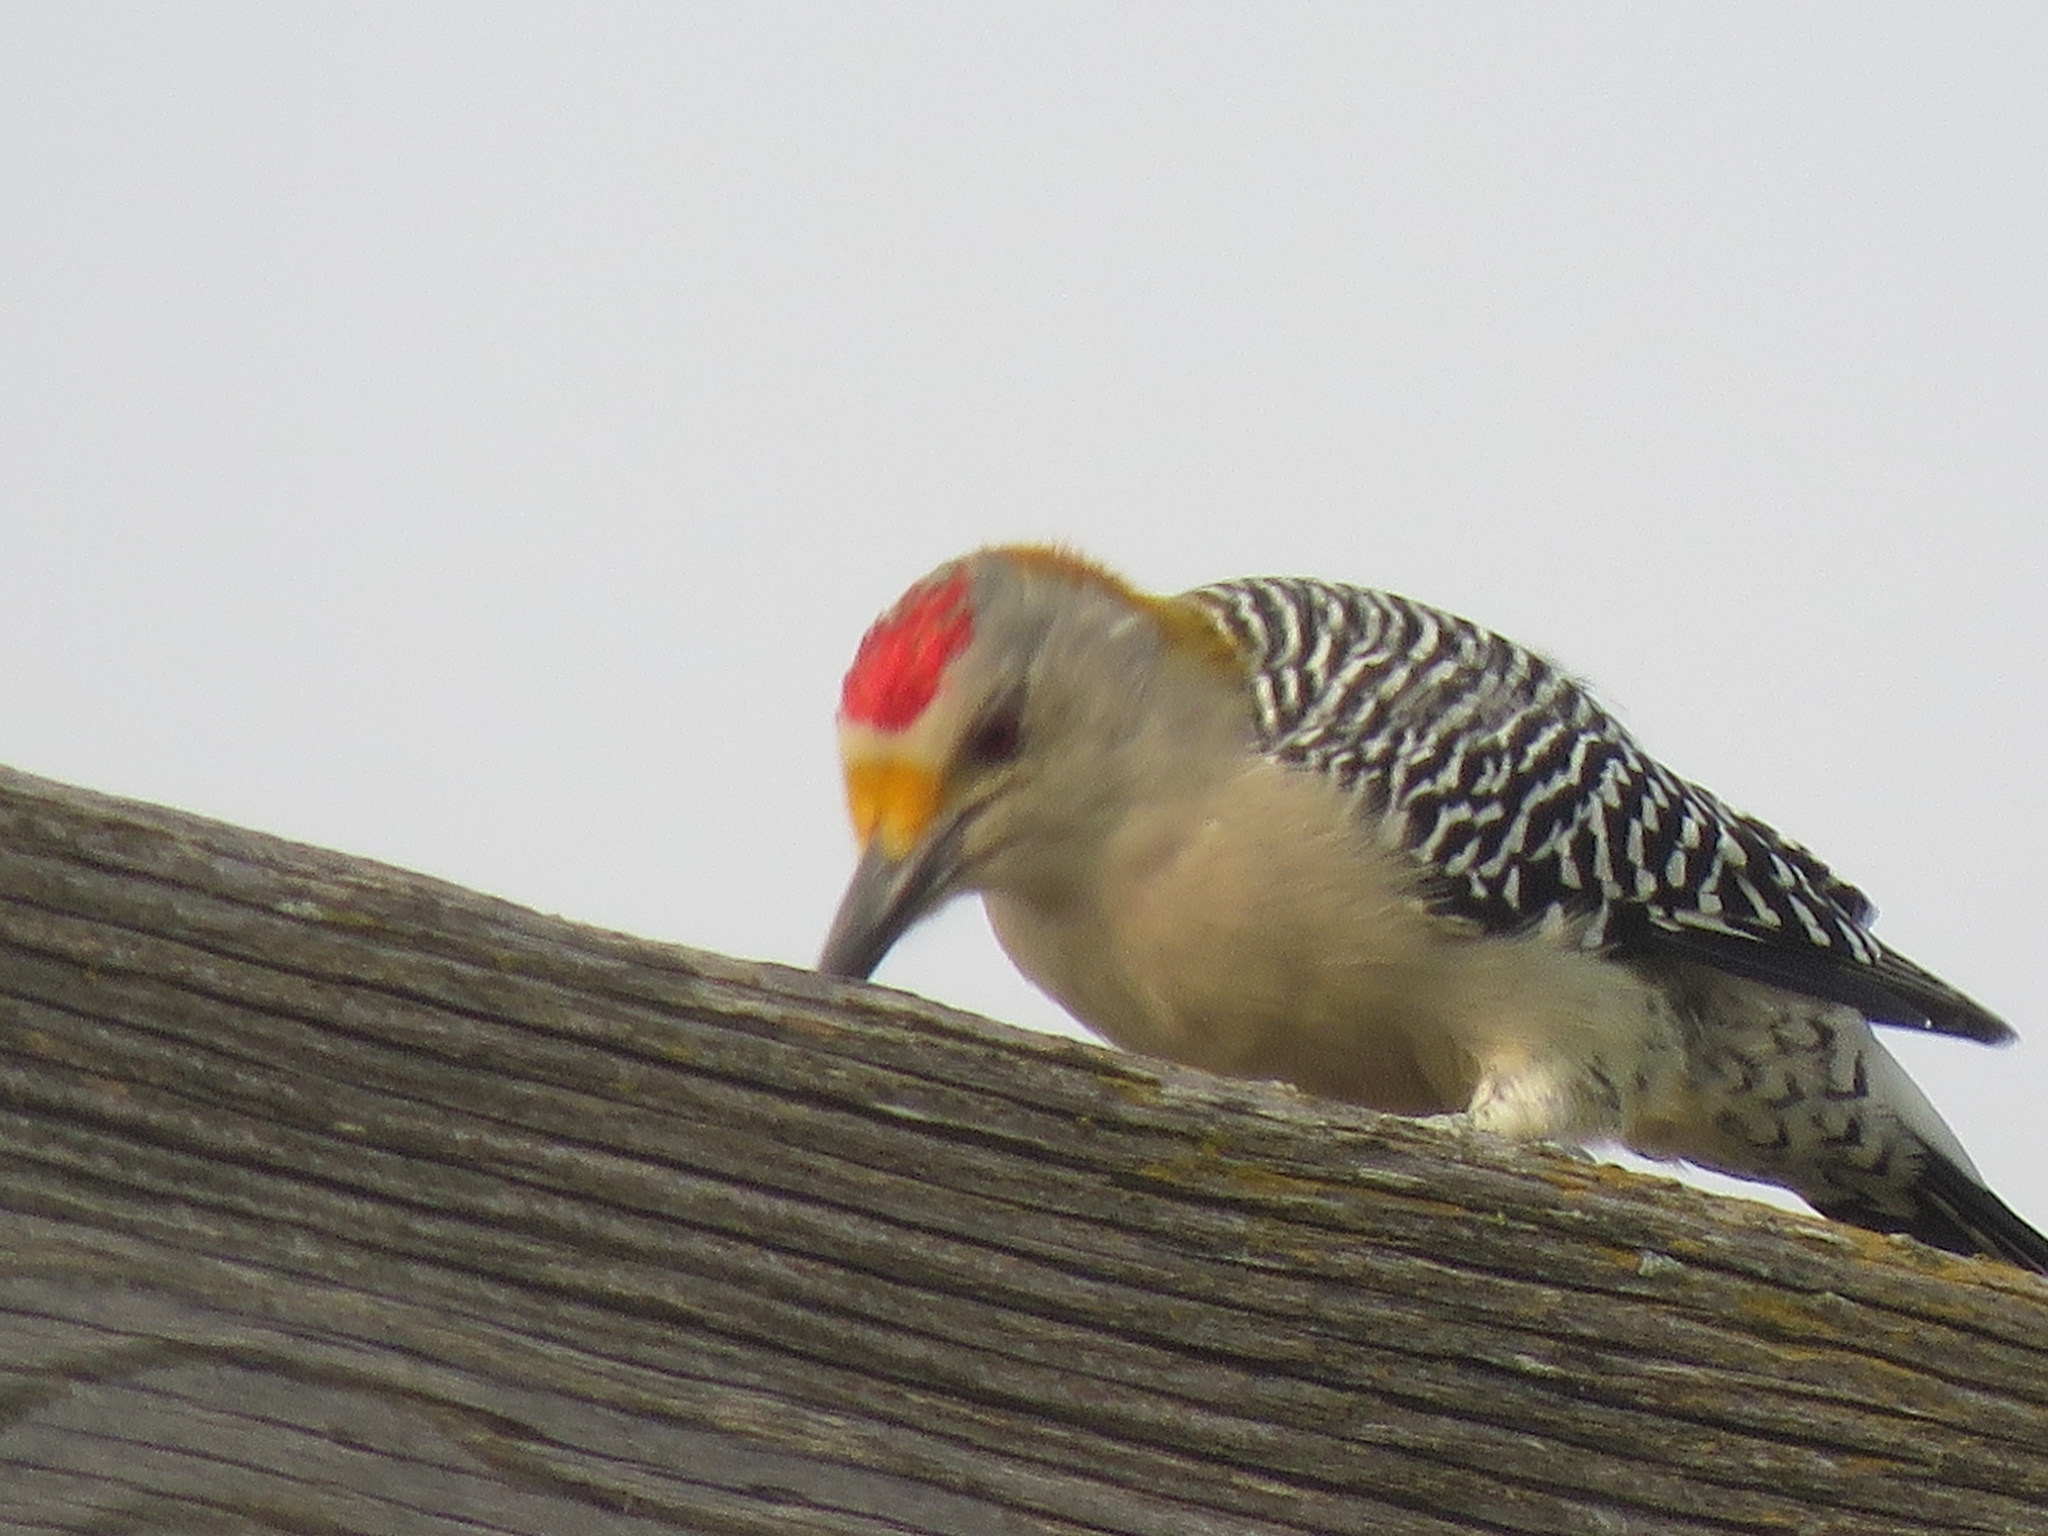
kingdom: Animalia
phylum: Chordata
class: Aves
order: Piciformes
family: Picidae
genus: Melanerpes
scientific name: Melanerpes aurifrons
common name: Golden-fronted woodpecker
